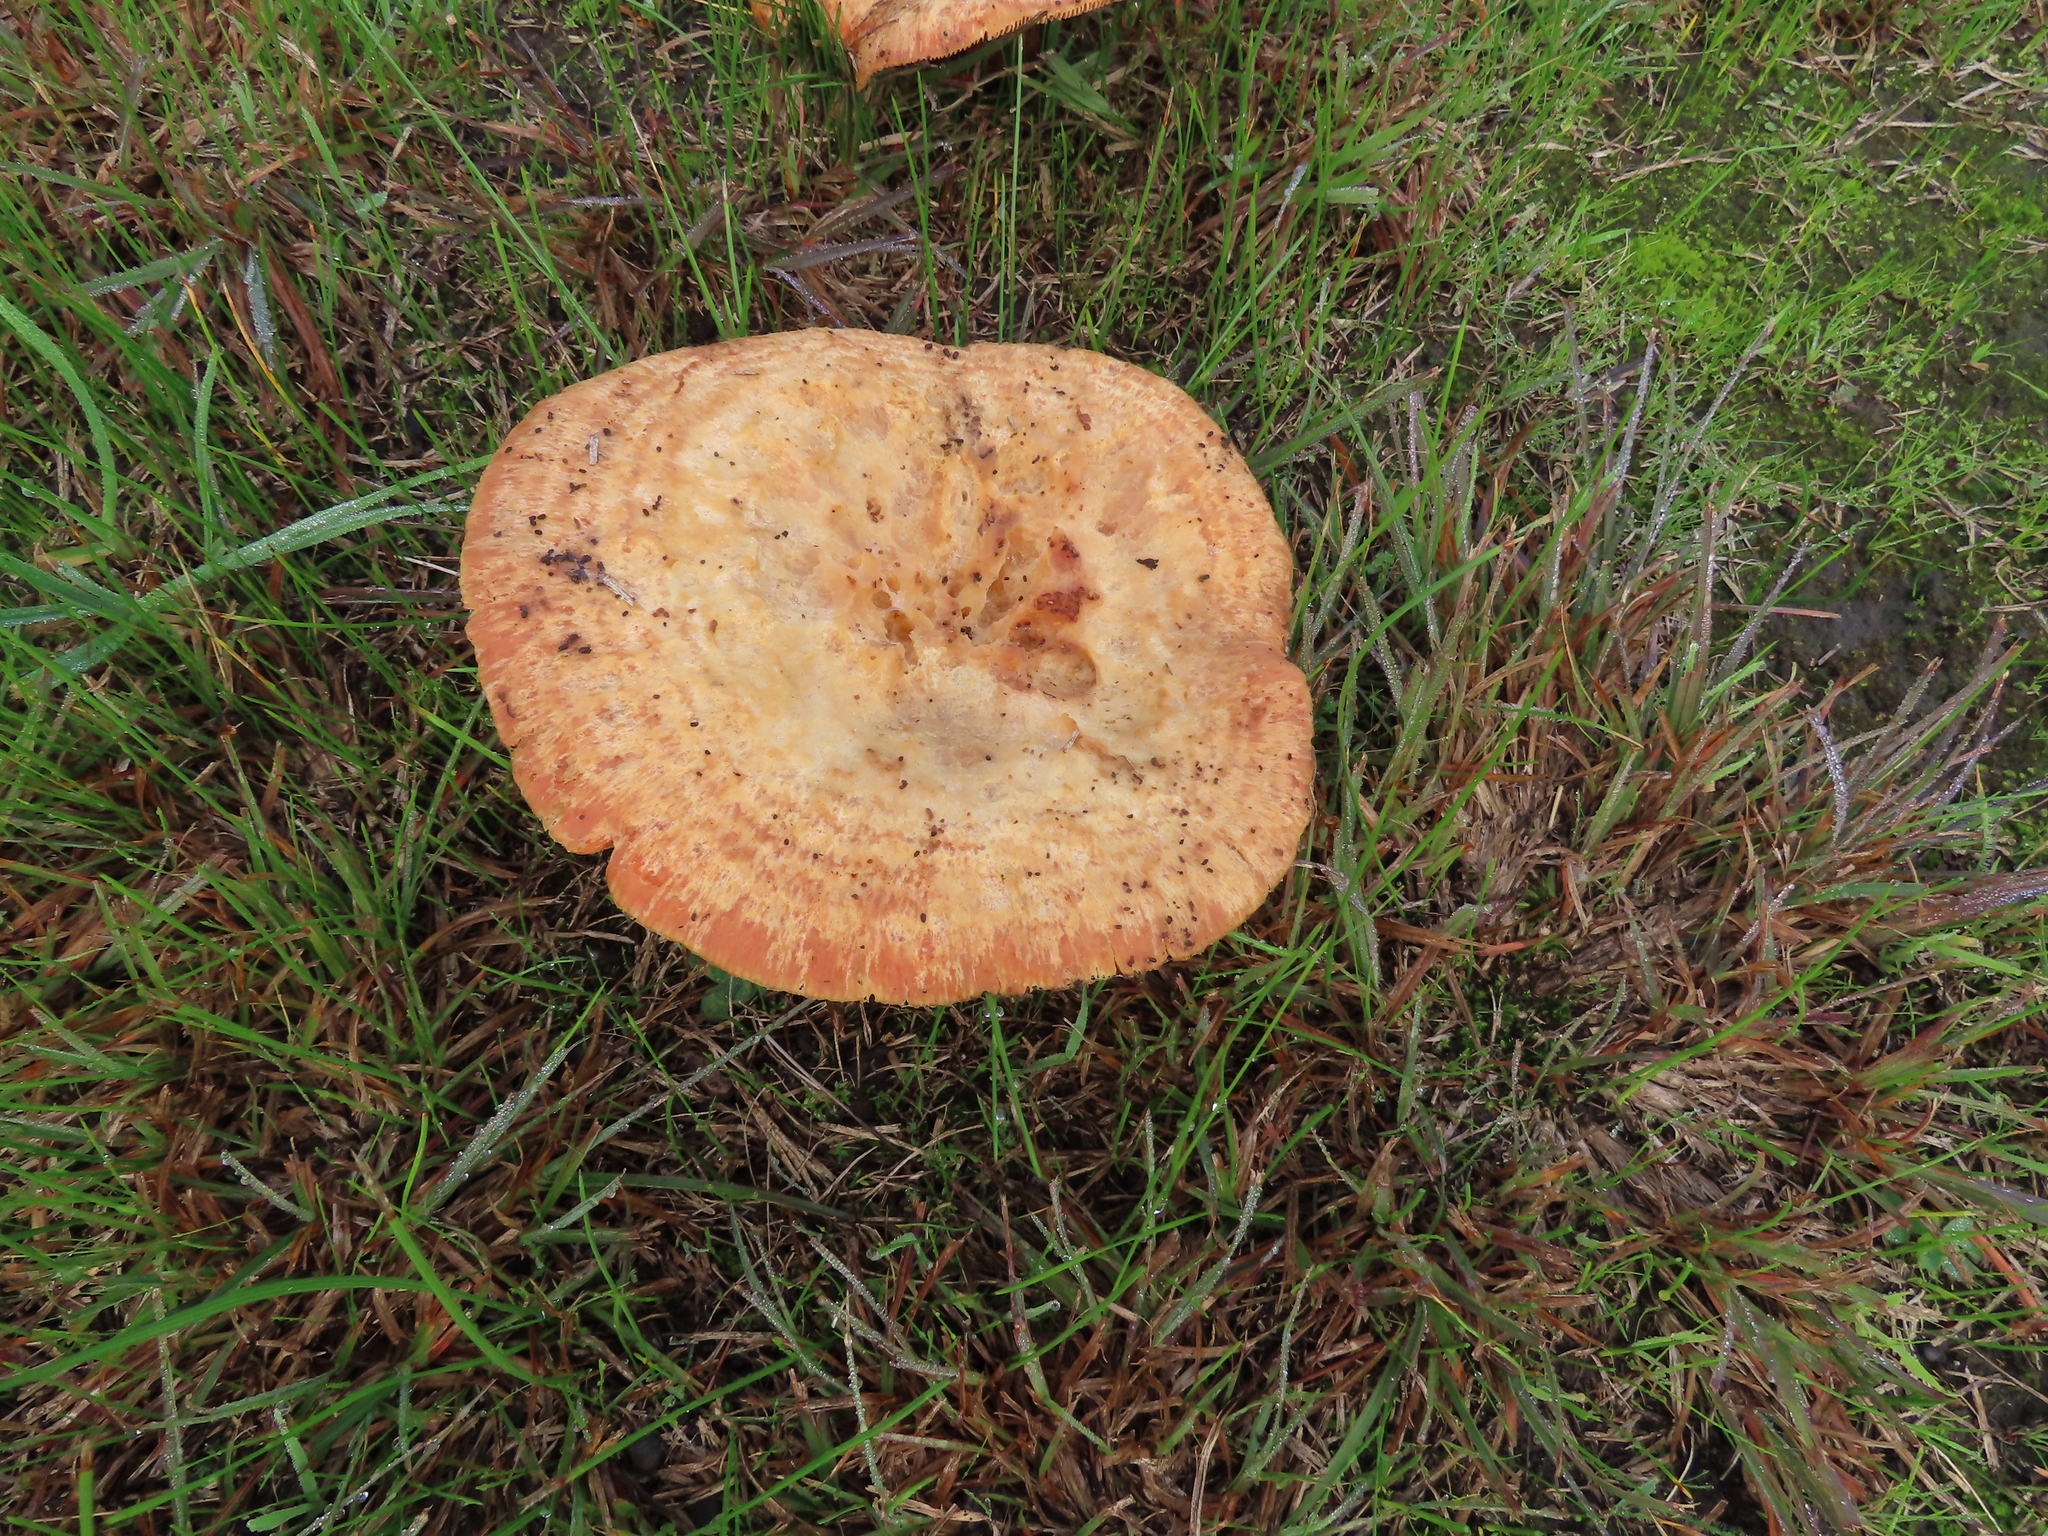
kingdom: Fungi
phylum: Basidiomycota
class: Agaricomycetes
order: Russulales
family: Russulaceae
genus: Lactarius
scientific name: Lactarius deliciosus
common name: Saffron milk-cap
